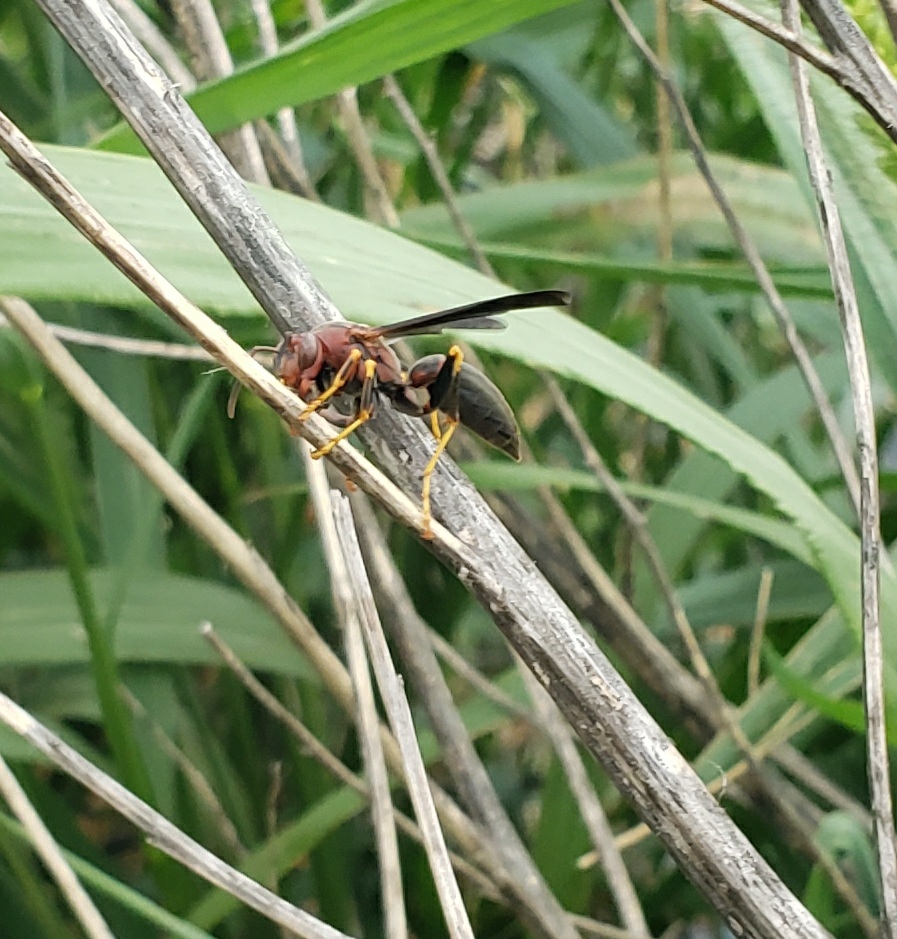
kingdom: Animalia
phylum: Arthropoda
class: Insecta
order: Hymenoptera
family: Eumenidae
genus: Polistes
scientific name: Polistes metricus
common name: Metric paper wasp
